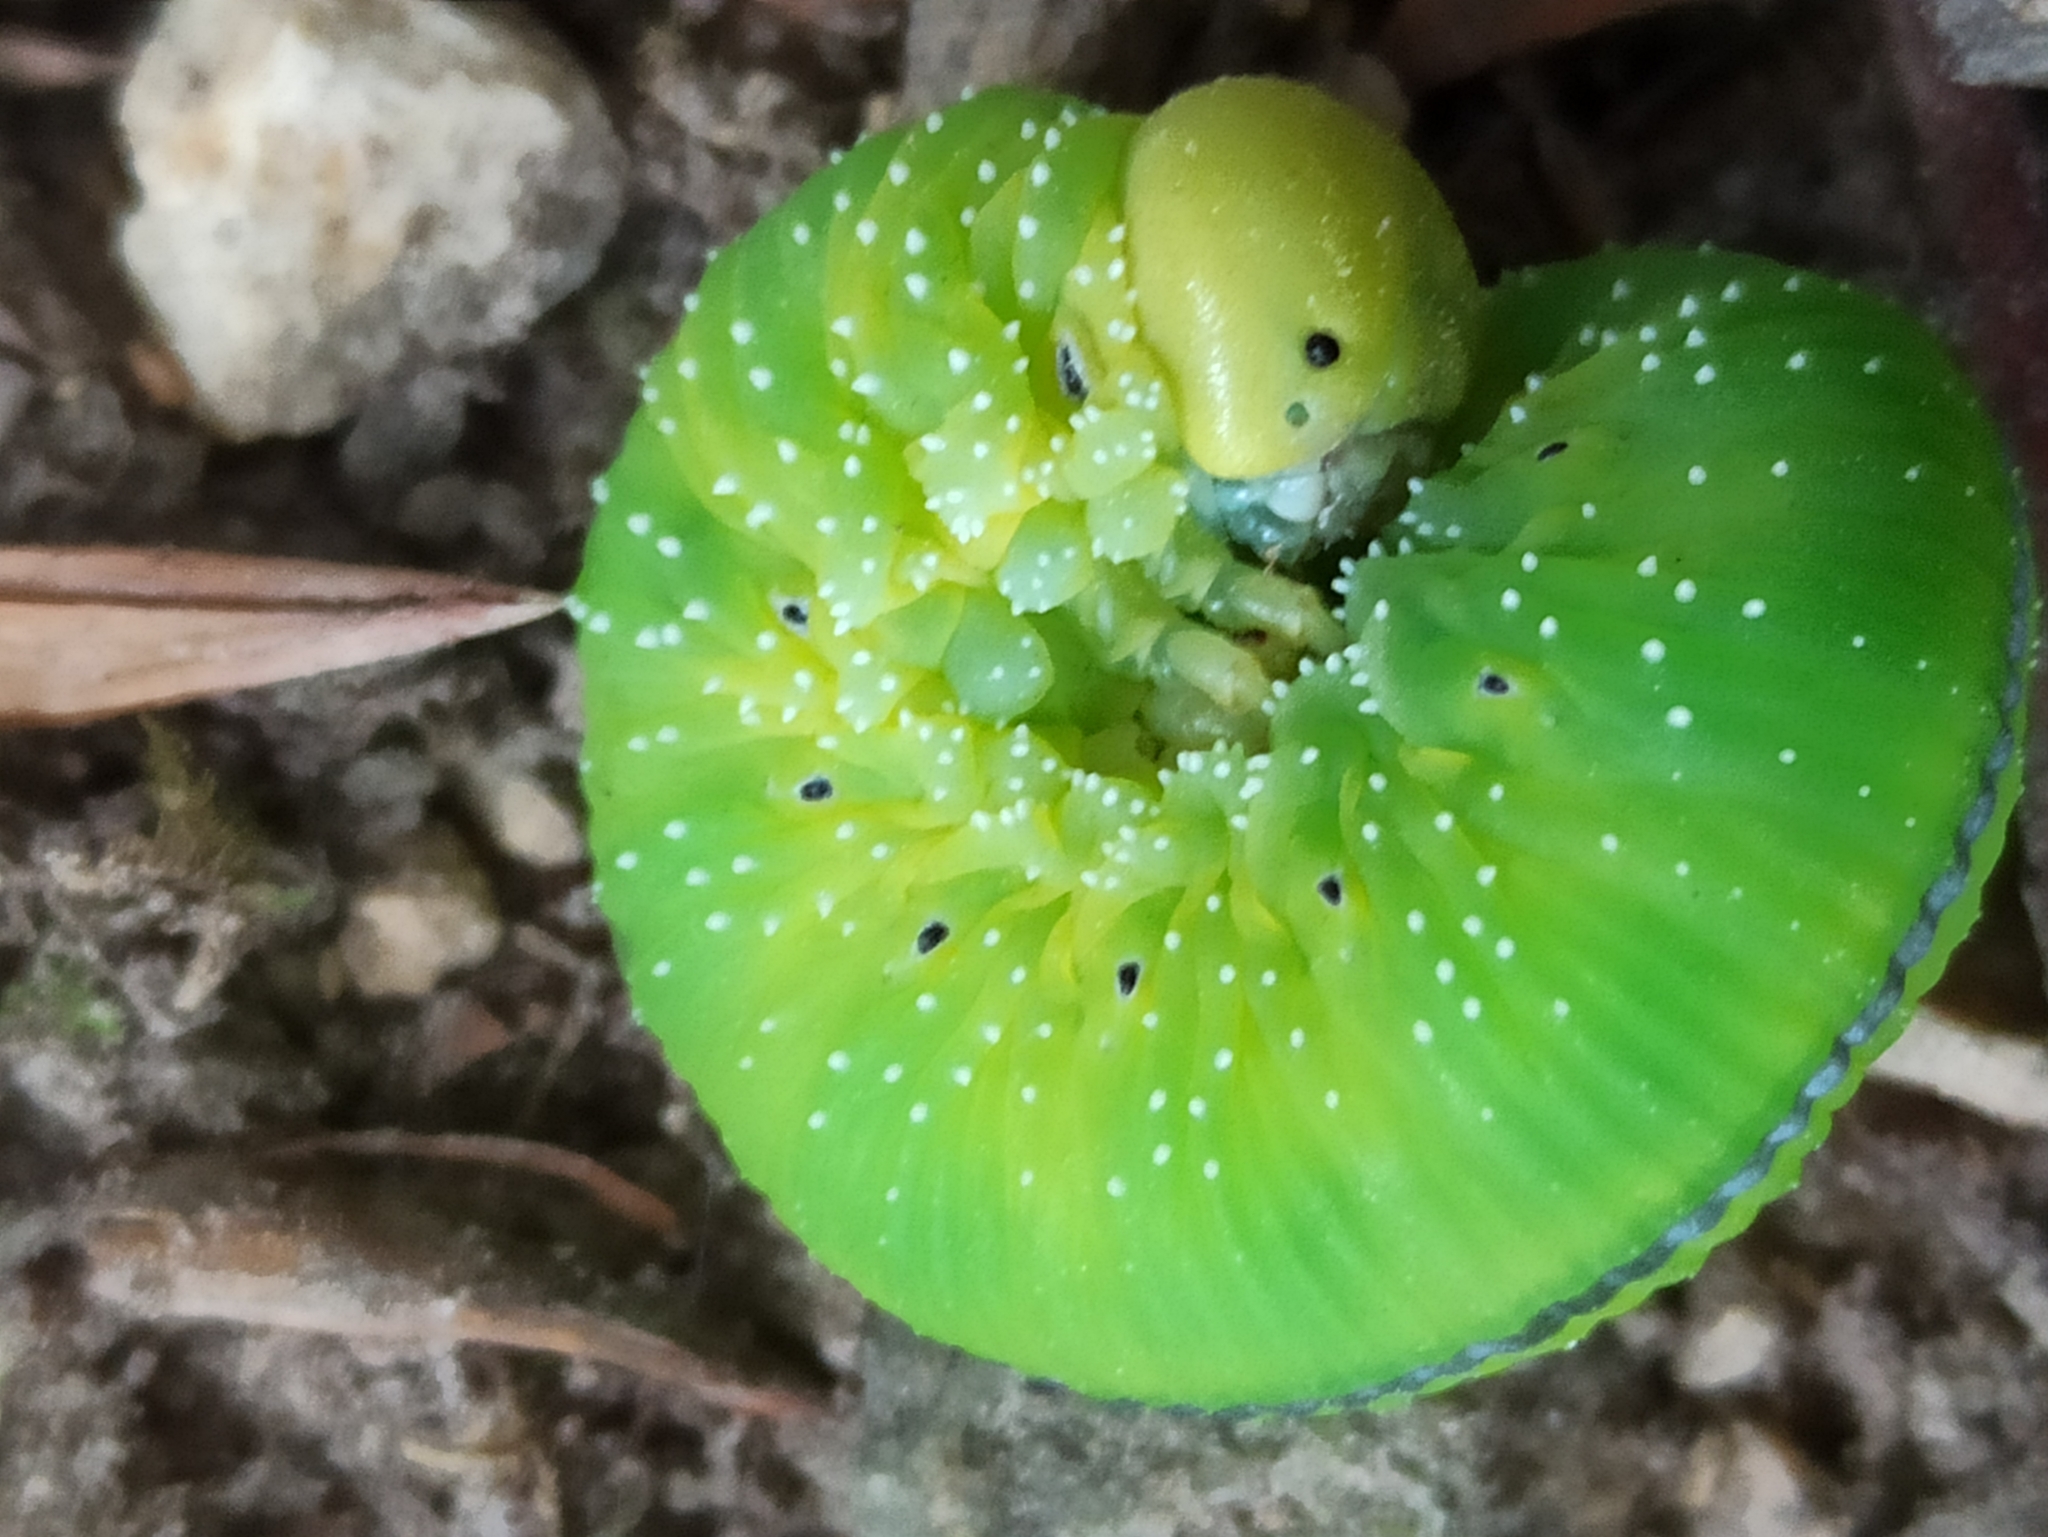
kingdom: Animalia
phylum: Arthropoda
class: Insecta
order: Hymenoptera
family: Cimbicidae
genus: Cimbex
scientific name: Cimbex femoratus
